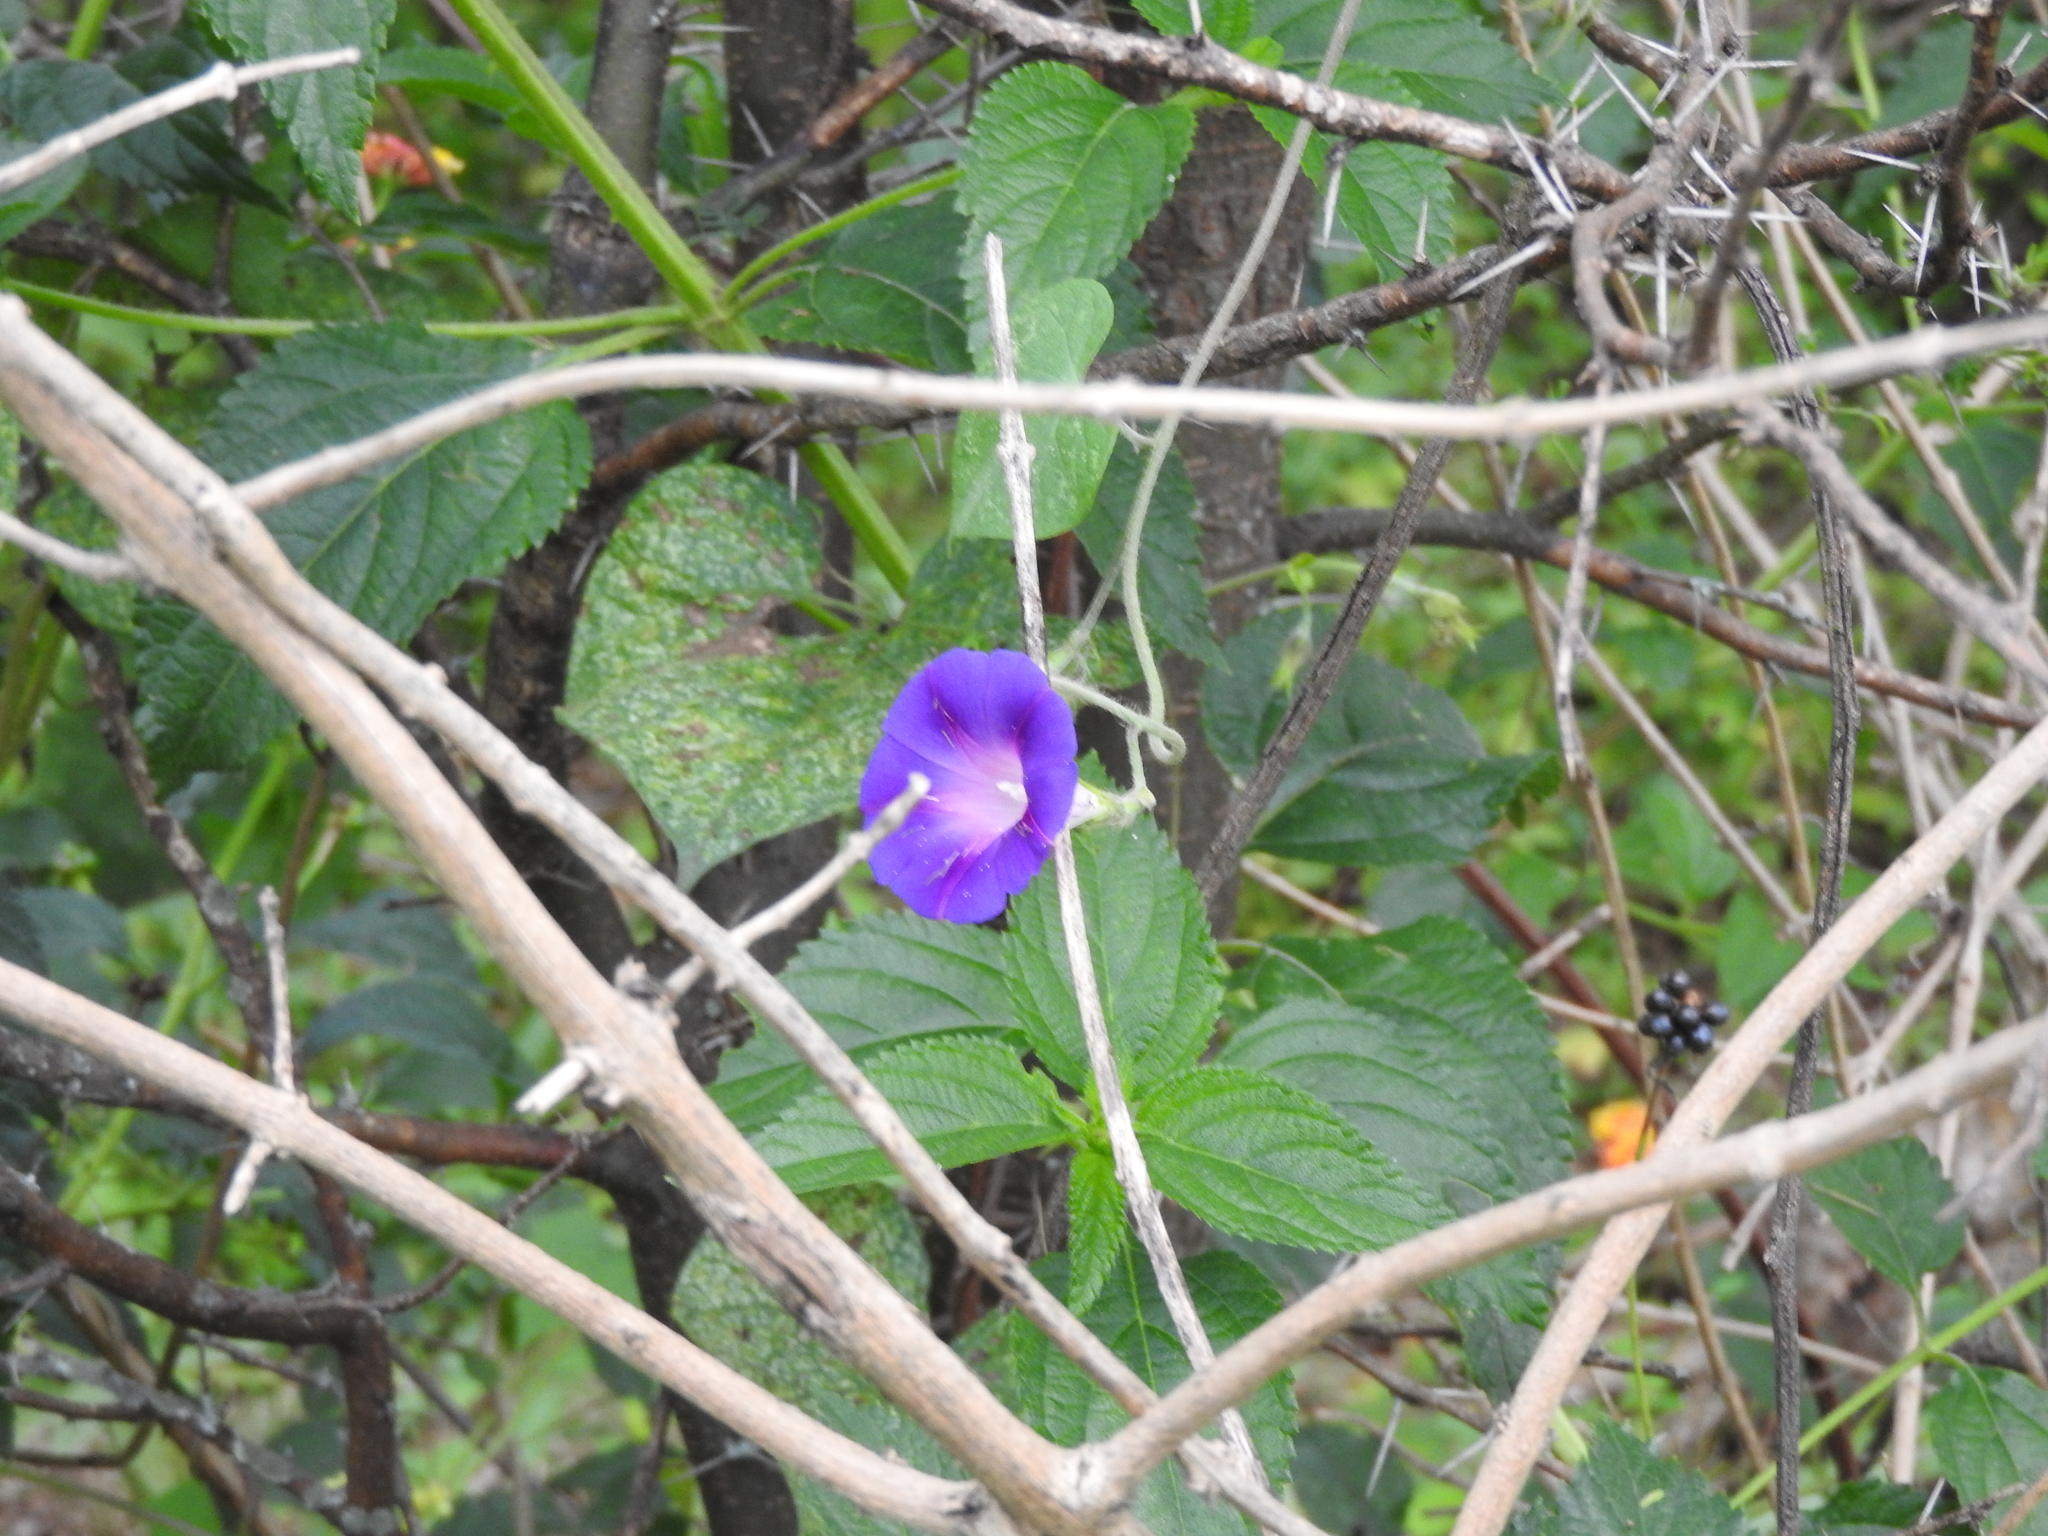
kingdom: Plantae
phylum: Tracheophyta
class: Magnoliopsida
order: Solanales
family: Convolvulaceae
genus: Ipomoea
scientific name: Ipomoea purpurea
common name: Common morning-glory
